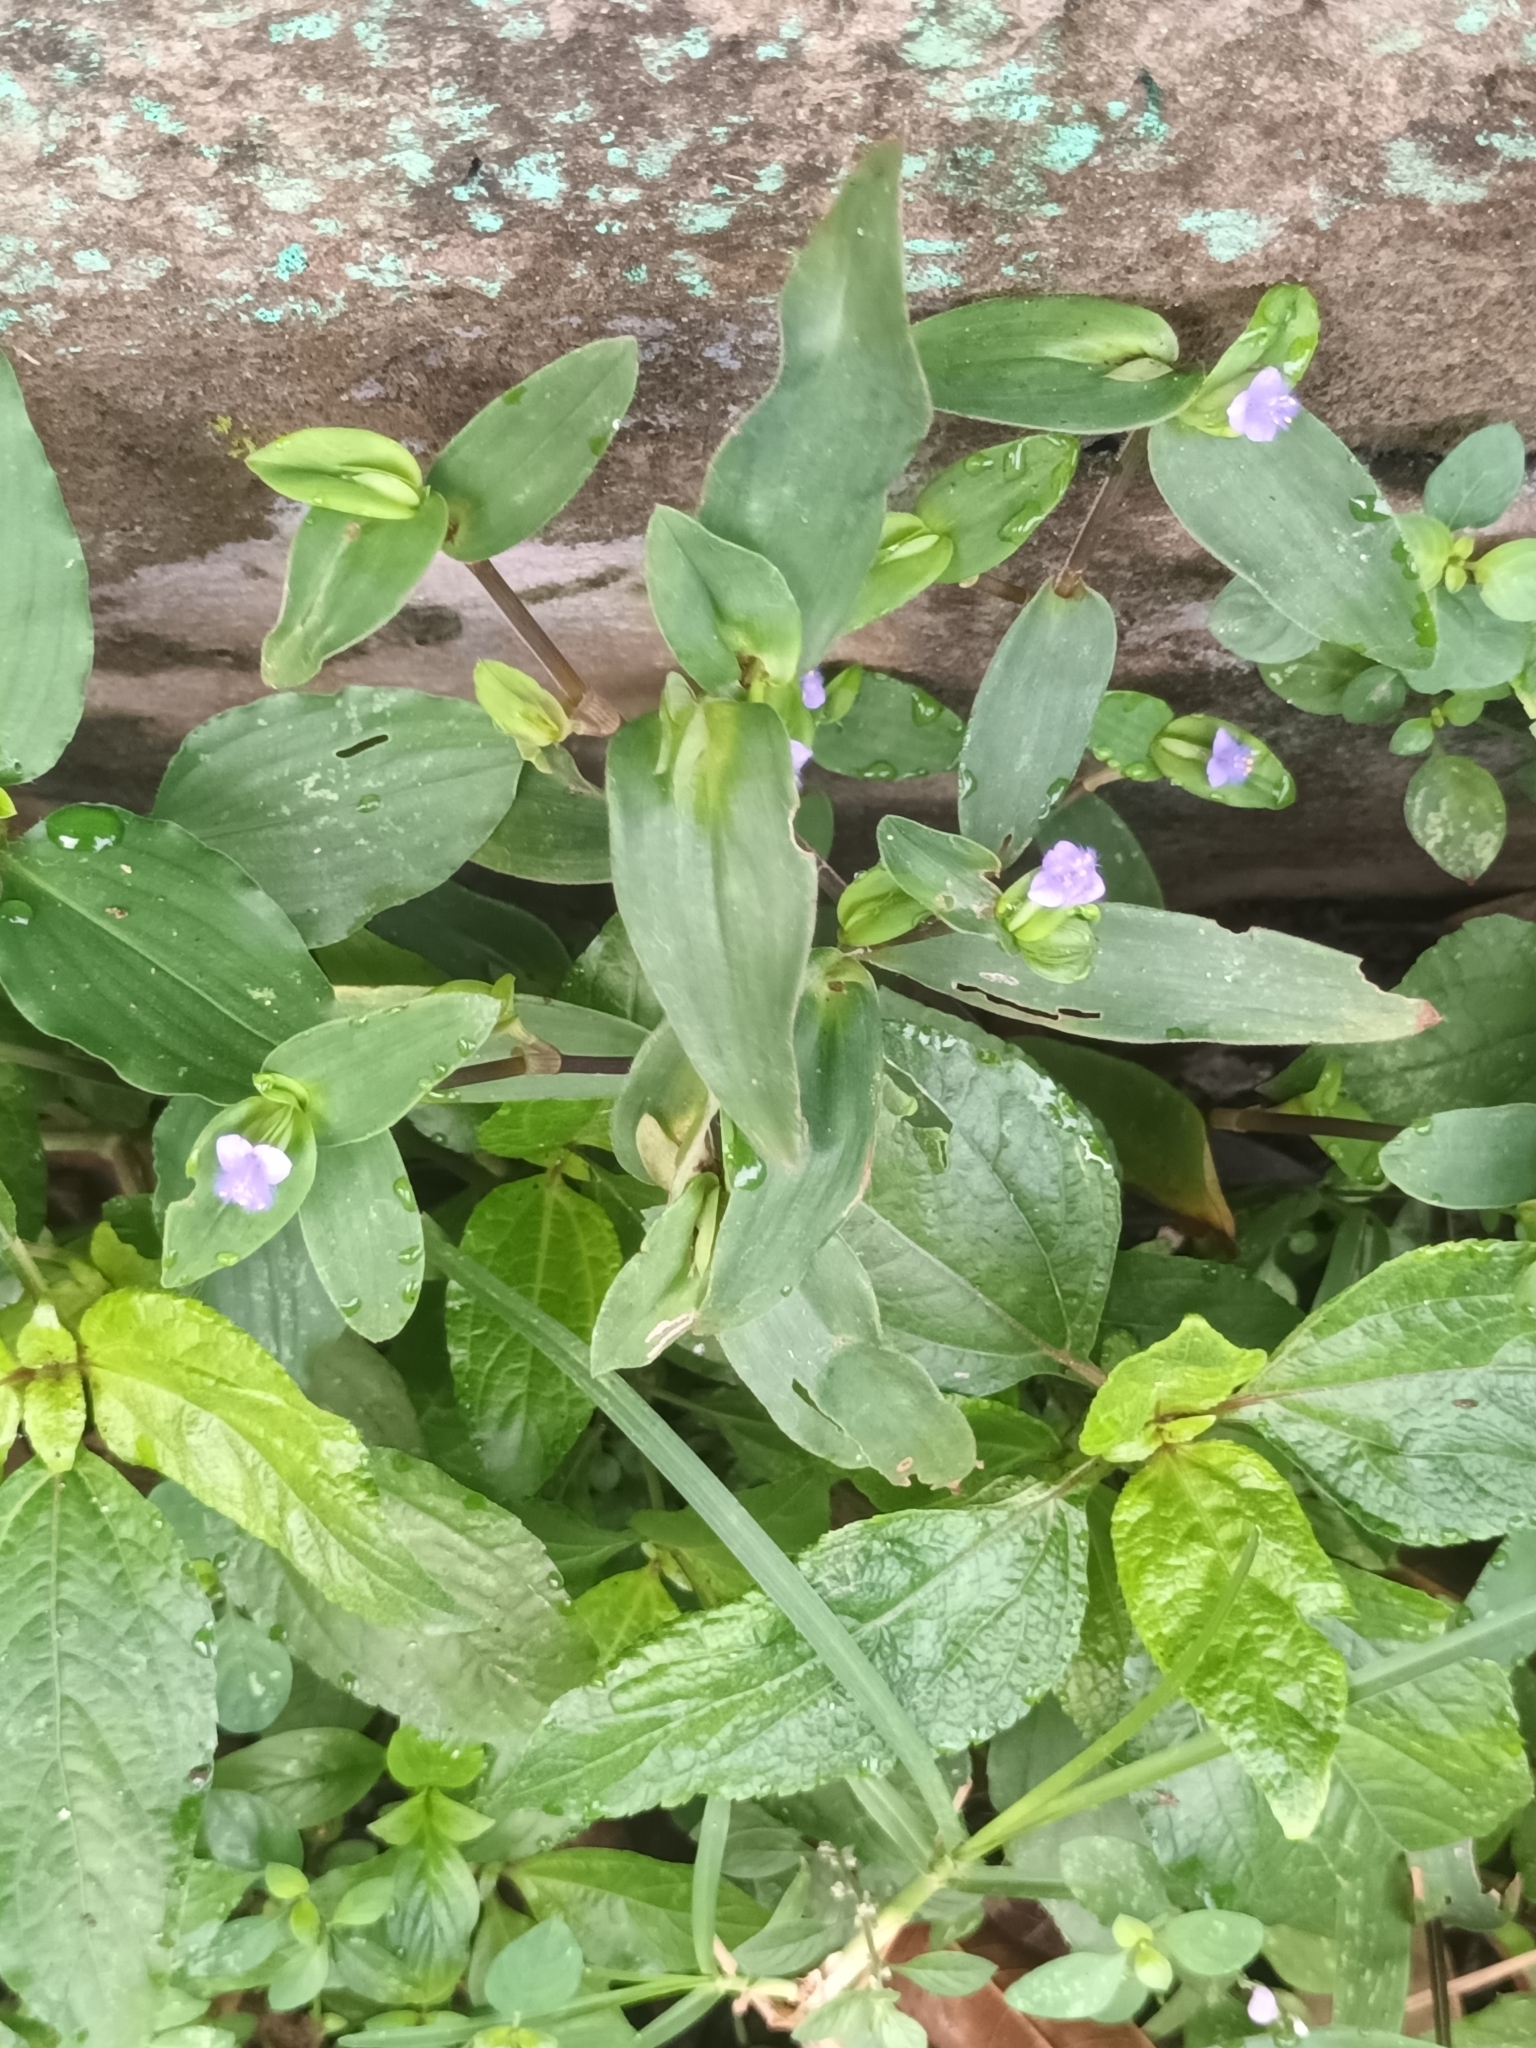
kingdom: Plantae
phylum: Tracheophyta
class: Liliopsida
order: Commelinales
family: Commelinaceae
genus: Cyanotis
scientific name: Cyanotis cristata
